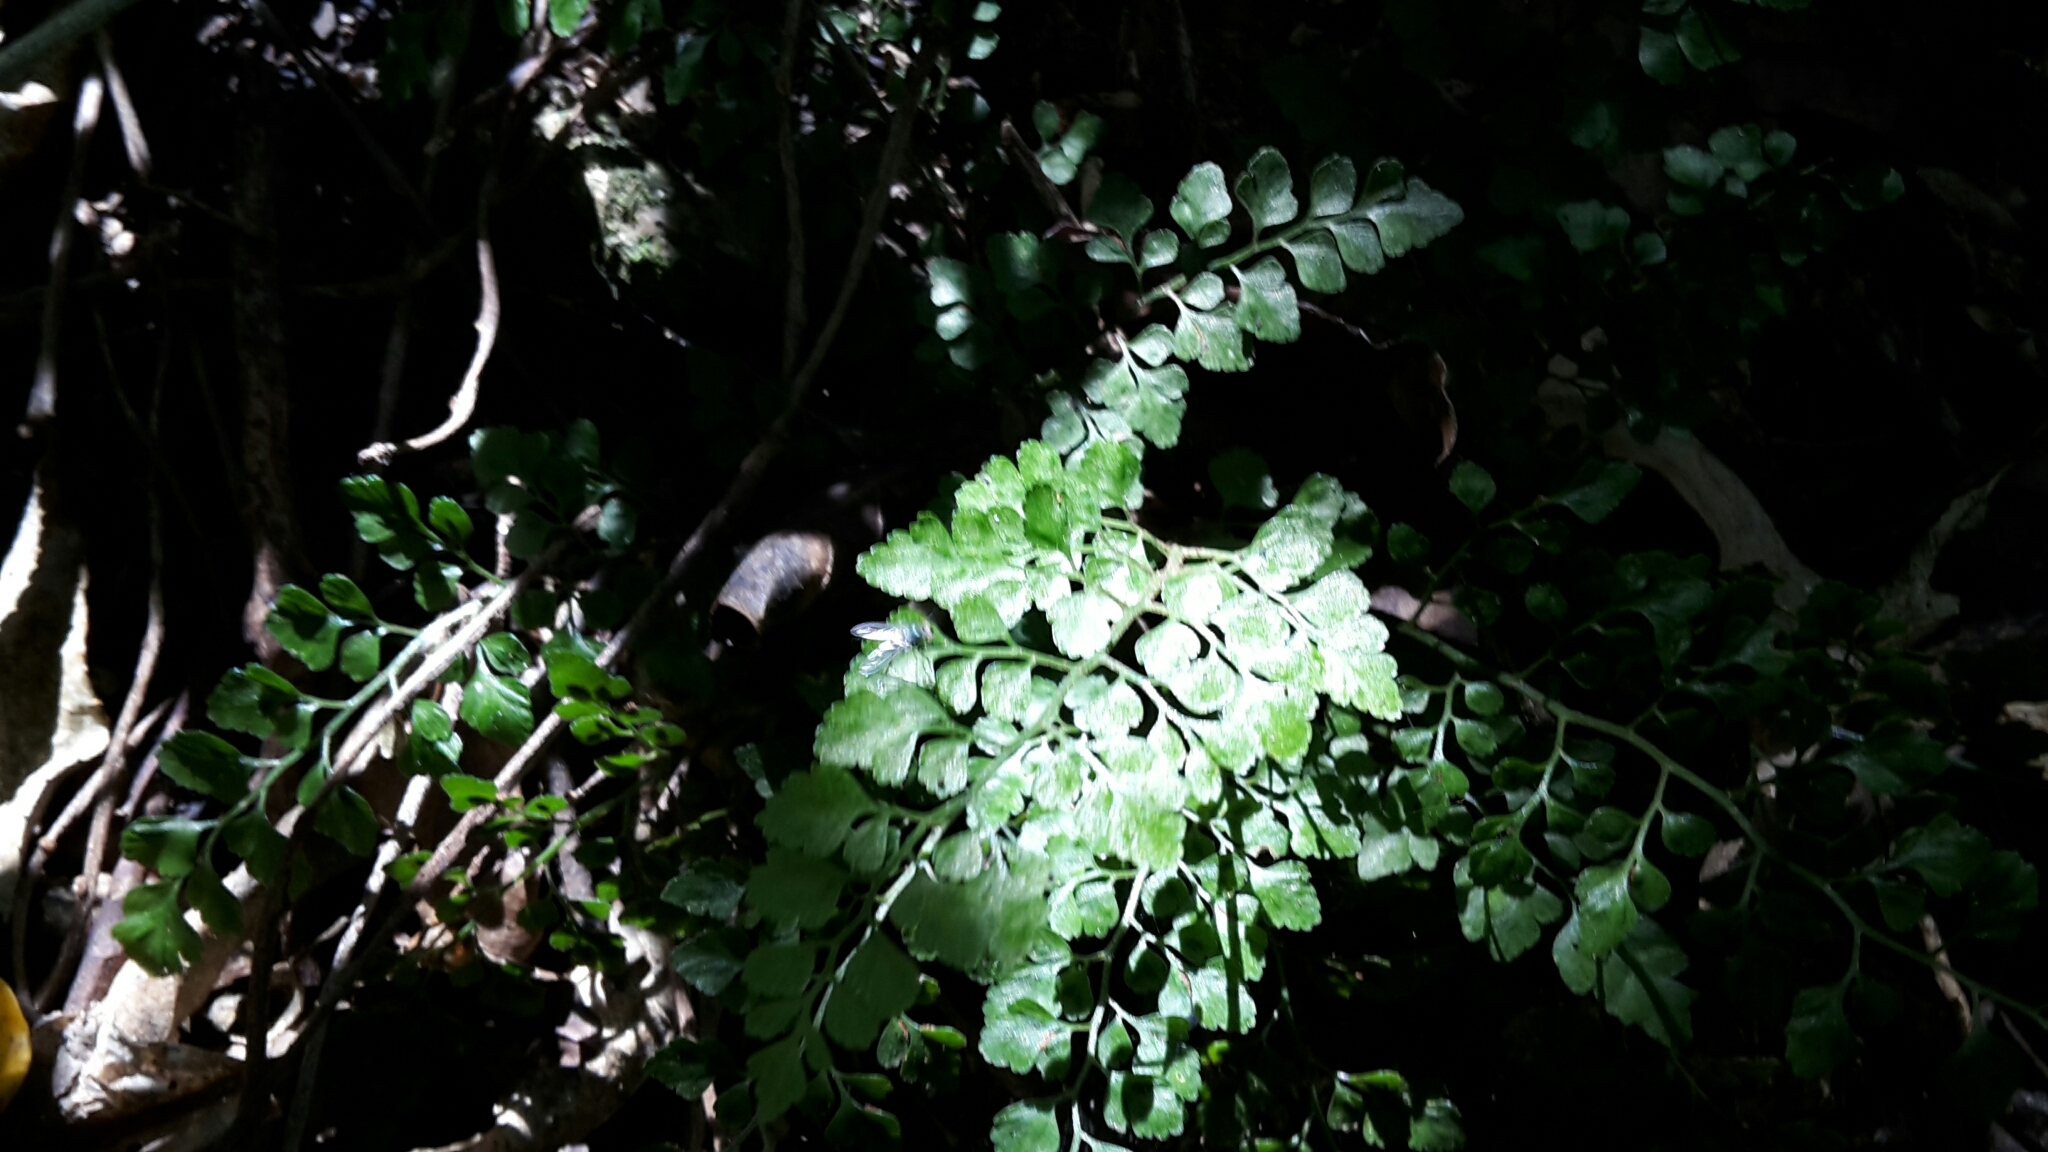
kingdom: Plantae
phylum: Tracheophyta
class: Polypodiopsida
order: Polypodiales
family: Aspleniaceae
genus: Asplenium
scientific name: Asplenium hookerianum
